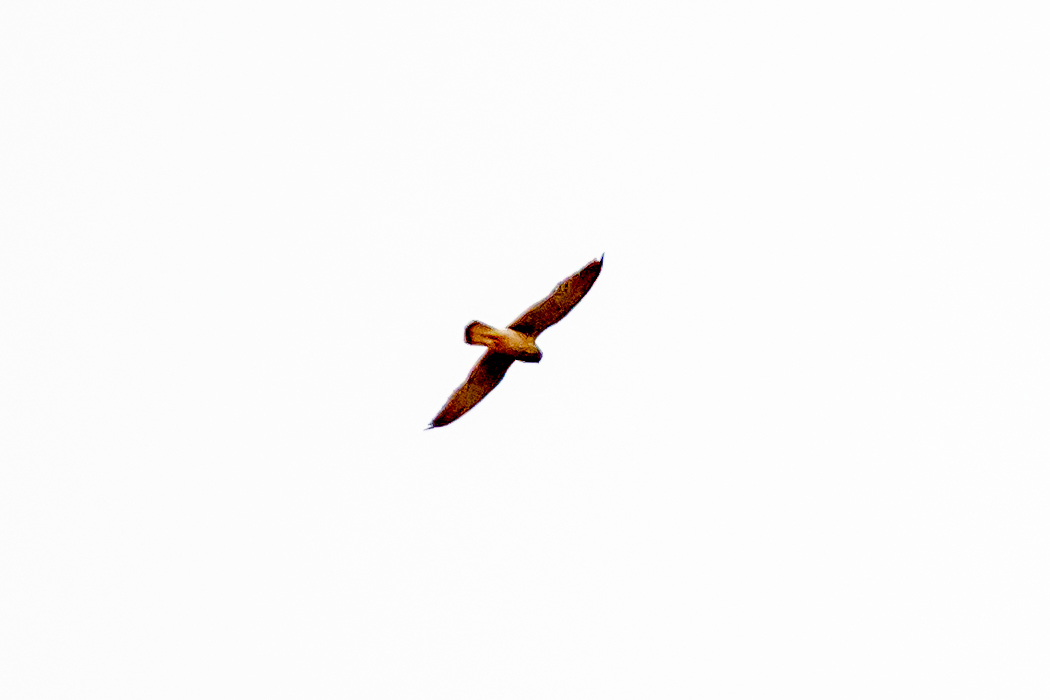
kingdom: Animalia
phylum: Chordata
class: Aves
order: Falconiformes
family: Falconidae
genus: Falco
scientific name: Falco tinnunculus
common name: Common kestrel
